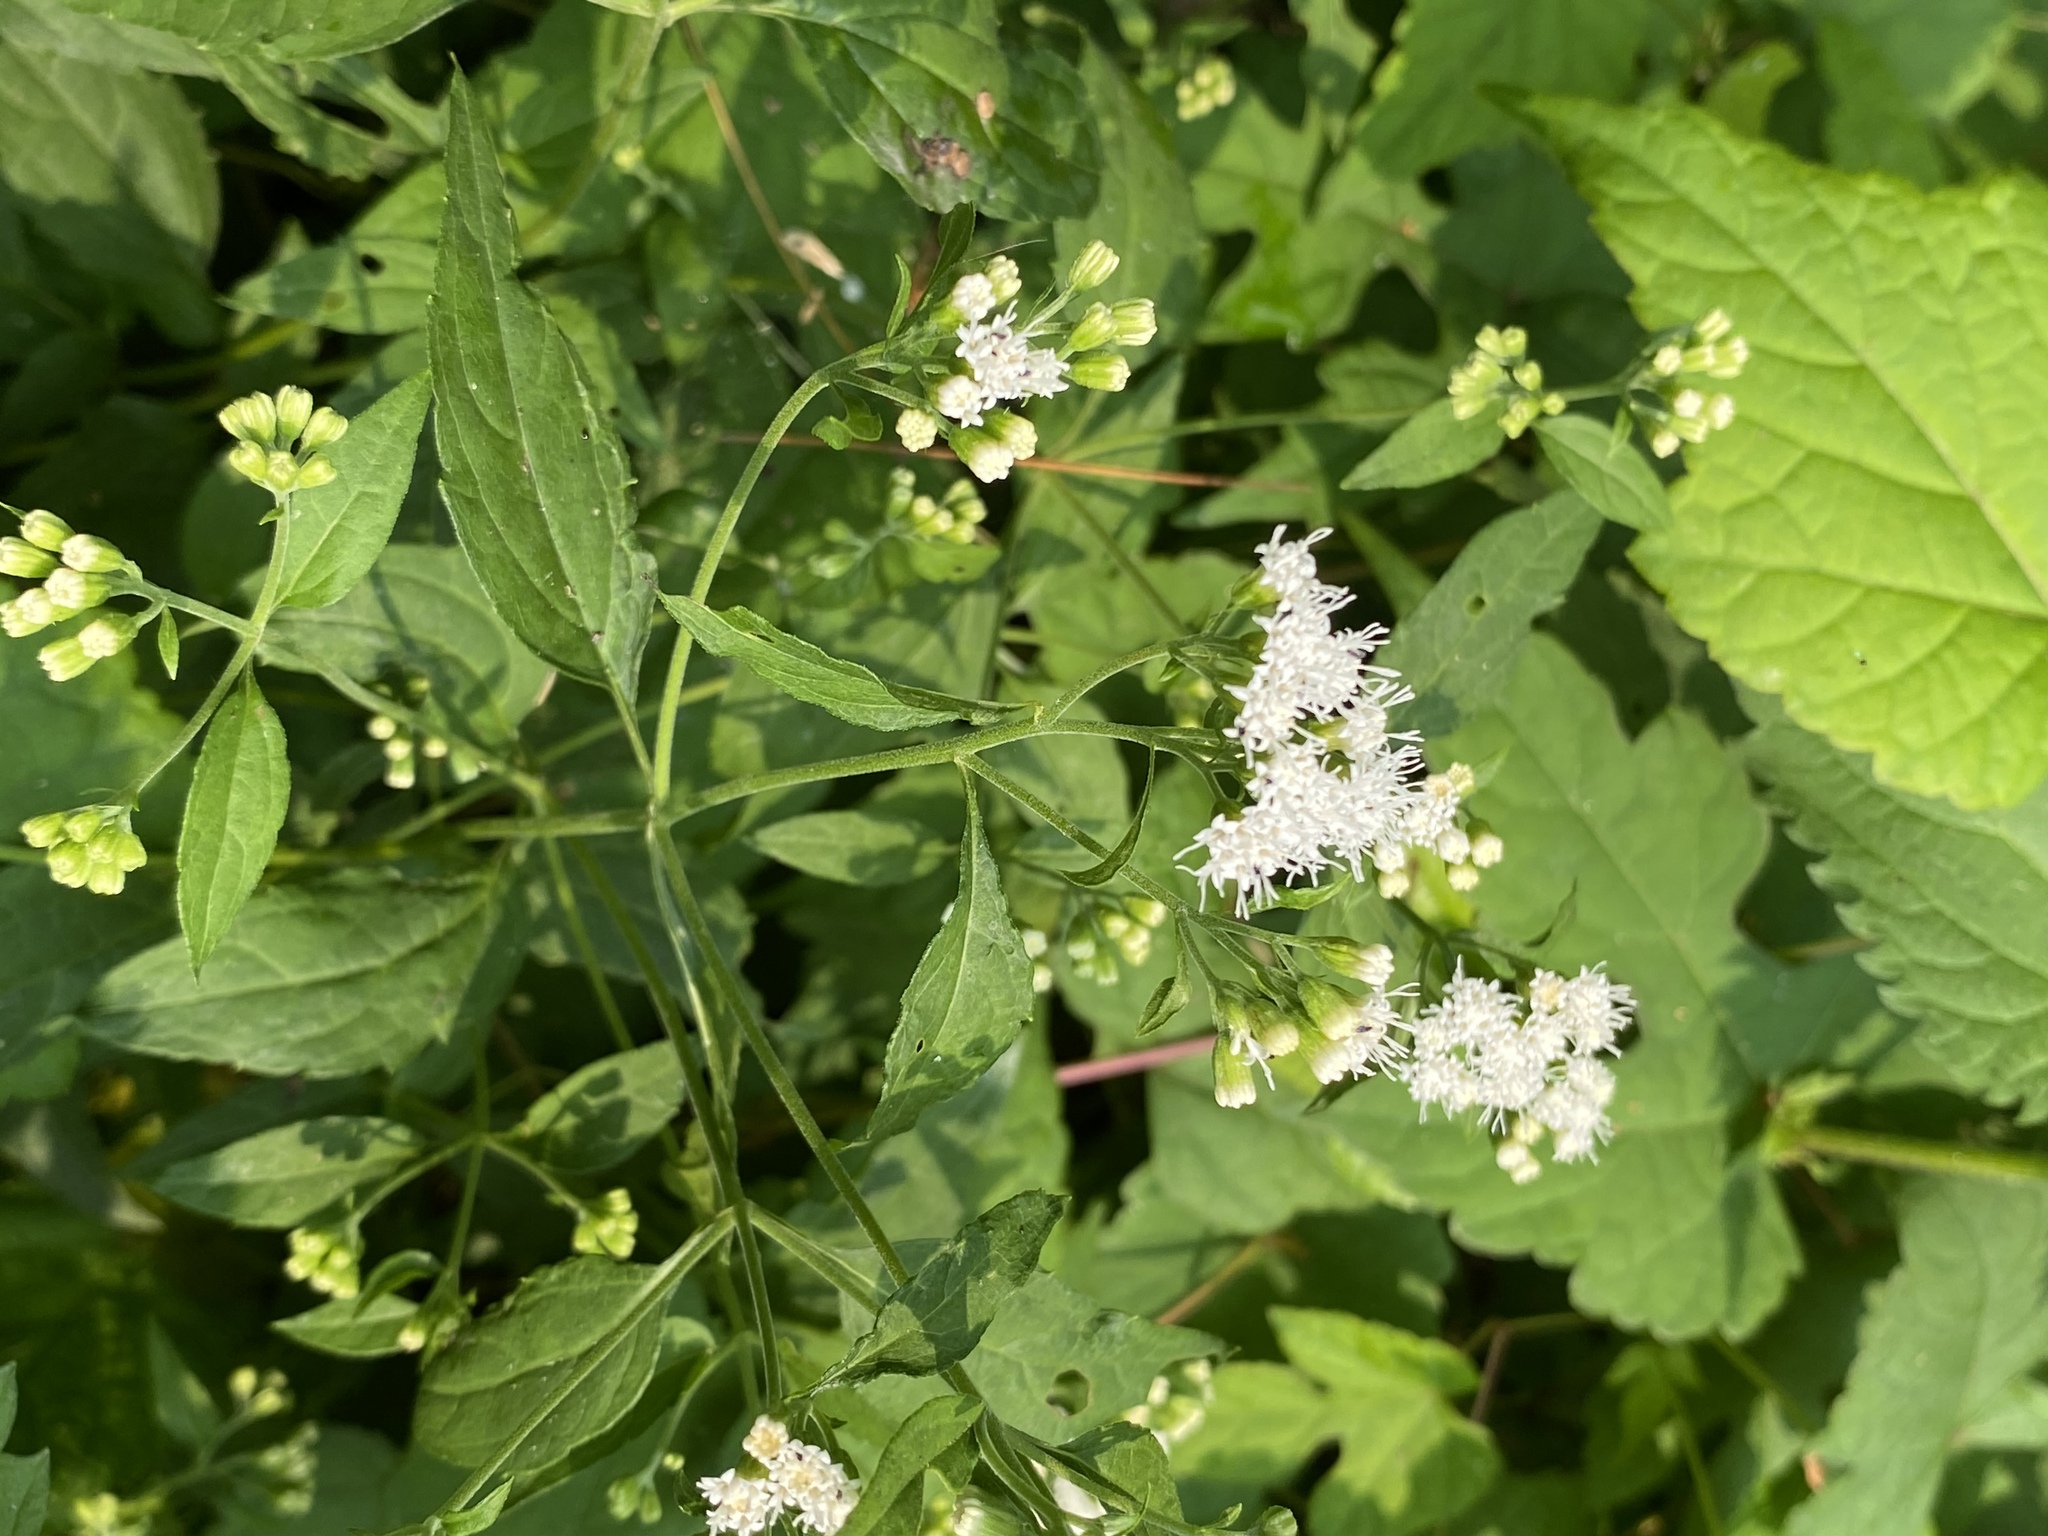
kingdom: Plantae
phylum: Tracheophyta
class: Magnoliopsida
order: Asterales
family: Asteraceae
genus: Ageratina
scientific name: Ageratina altissima
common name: White snakeroot
